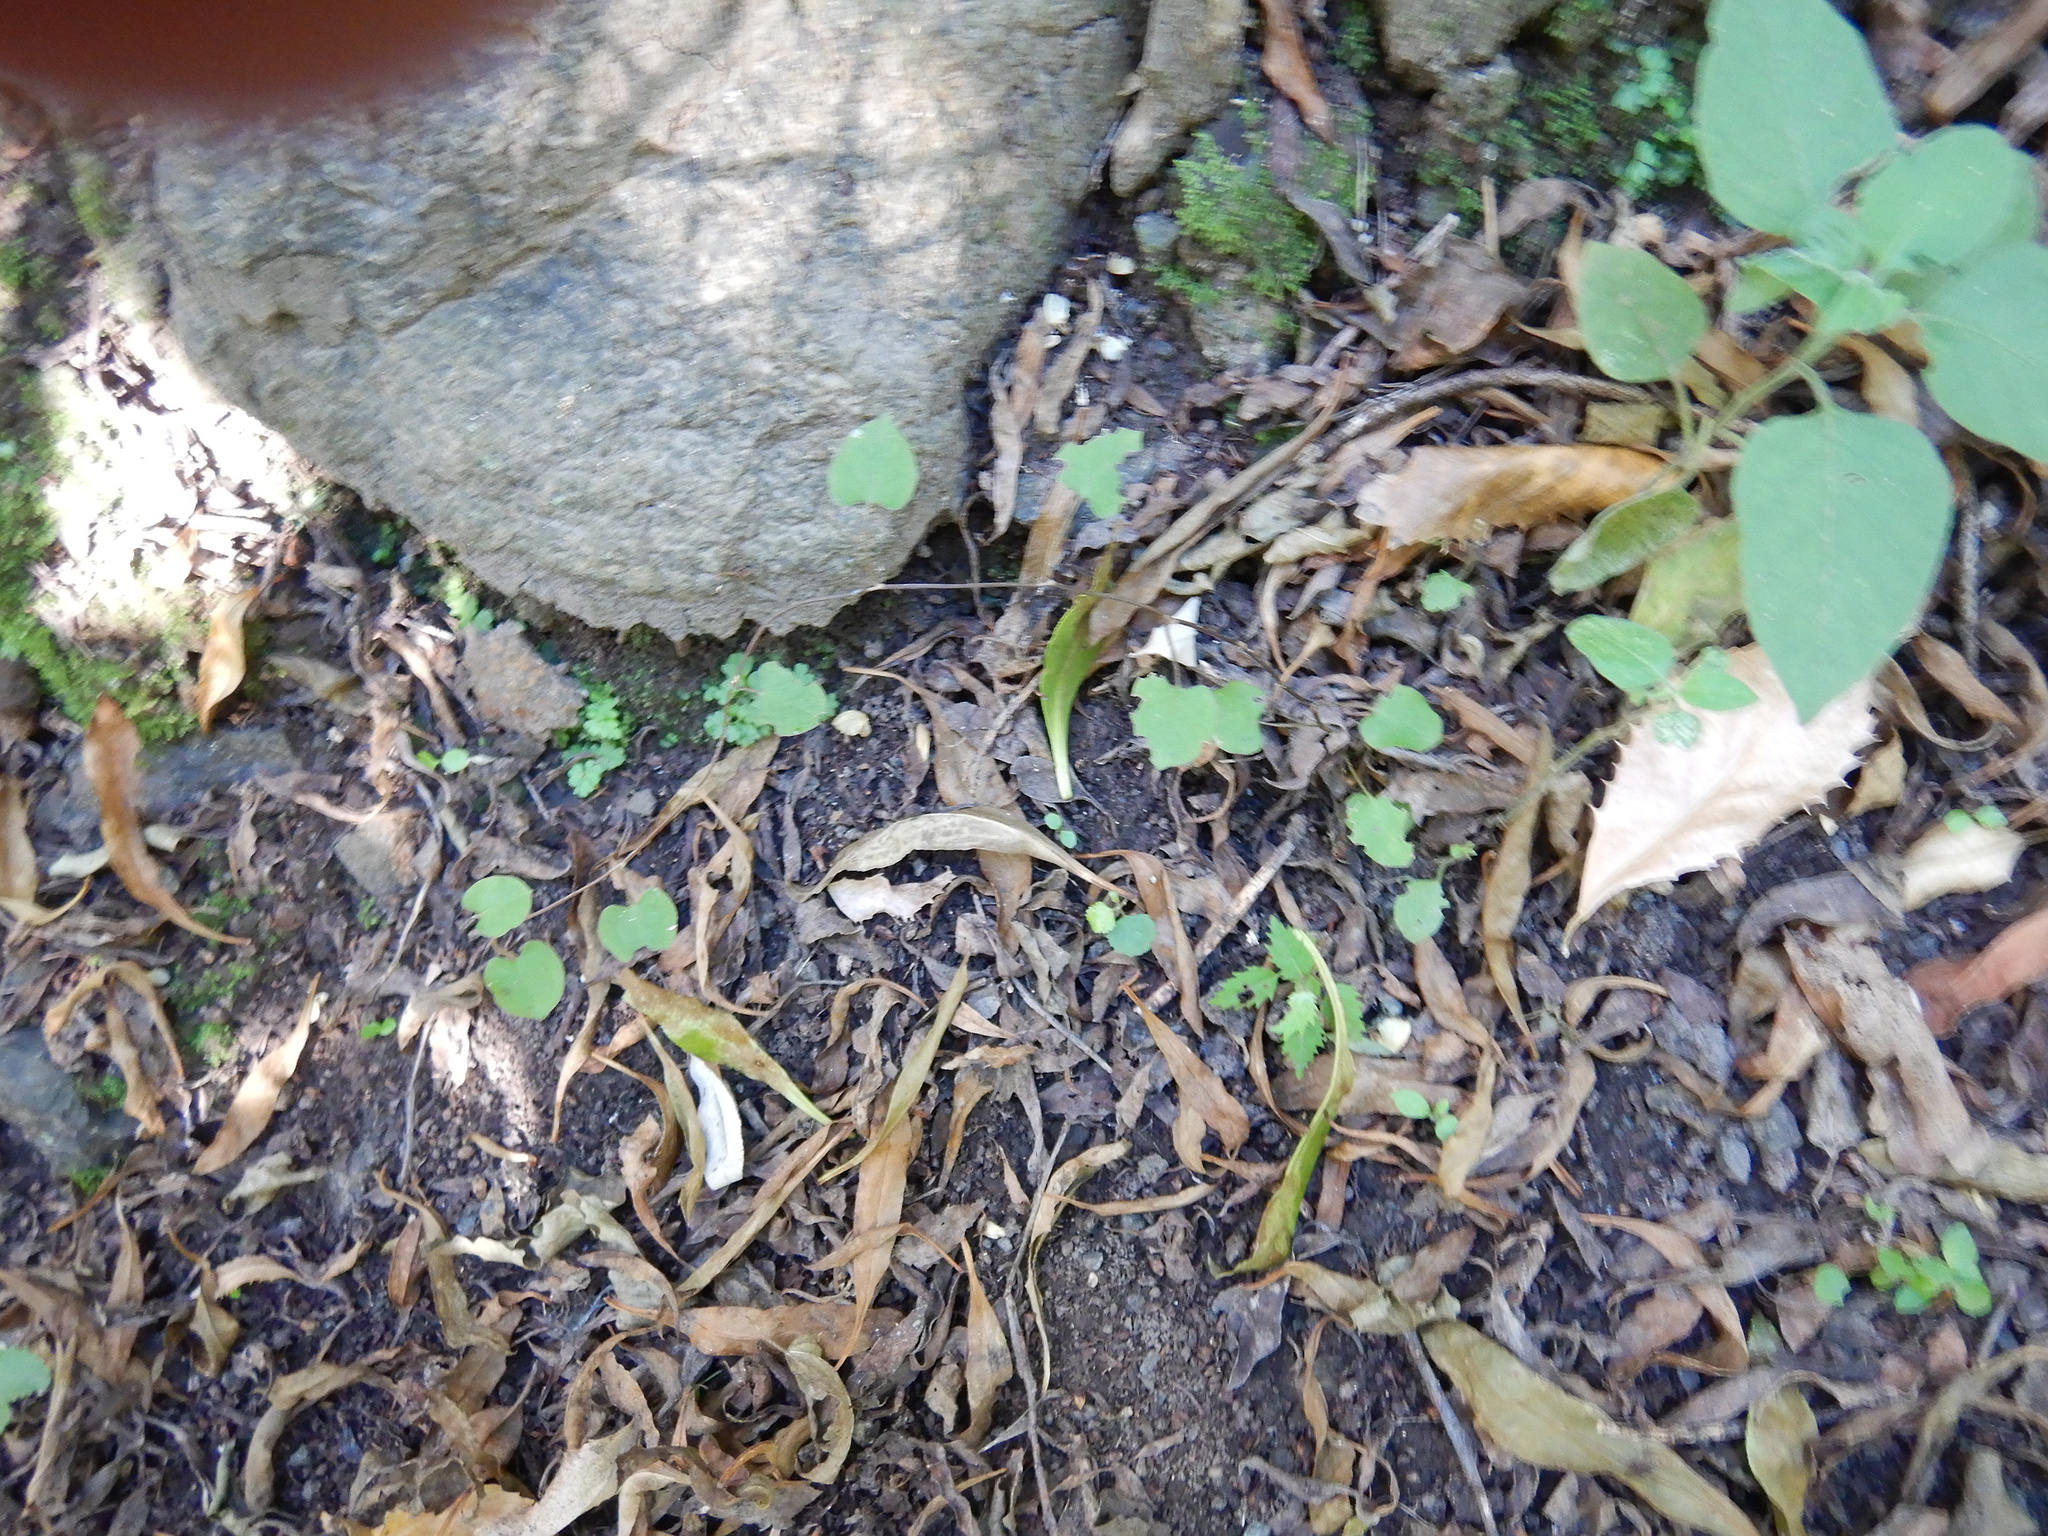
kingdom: Plantae
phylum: Tracheophyta
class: Magnoliopsida
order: Caryophyllales
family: Polygonaceae
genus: Muehlenbeckia
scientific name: Muehlenbeckia australis
